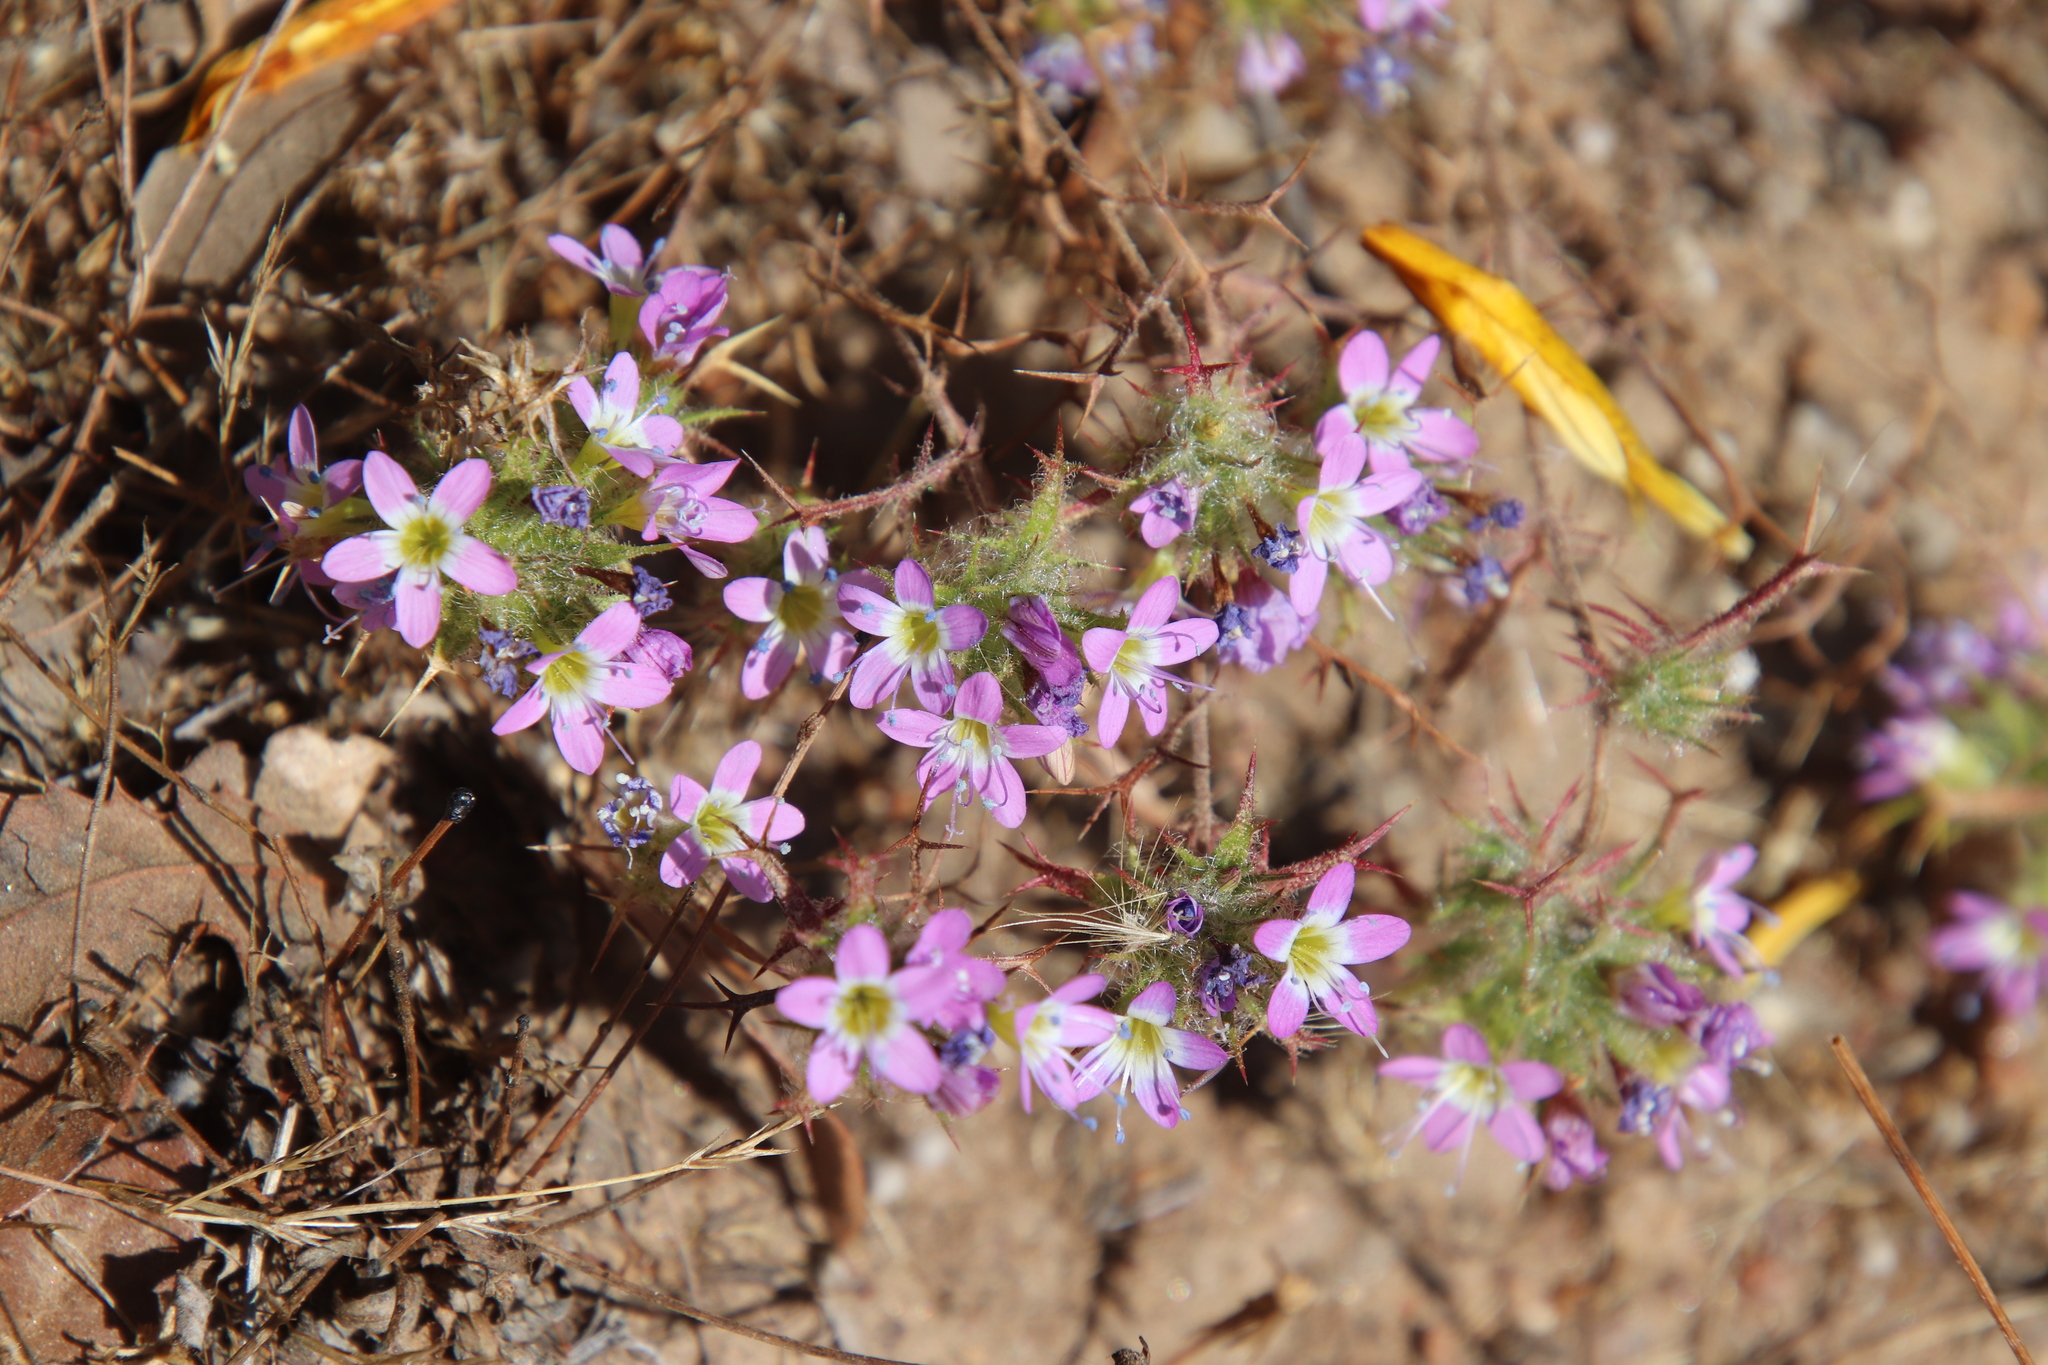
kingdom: Plantae
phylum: Tracheophyta
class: Magnoliopsida
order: Ericales
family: Polemoniaceae
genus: Navarretia
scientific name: Navarretia hamata
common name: Hooked navarretia
